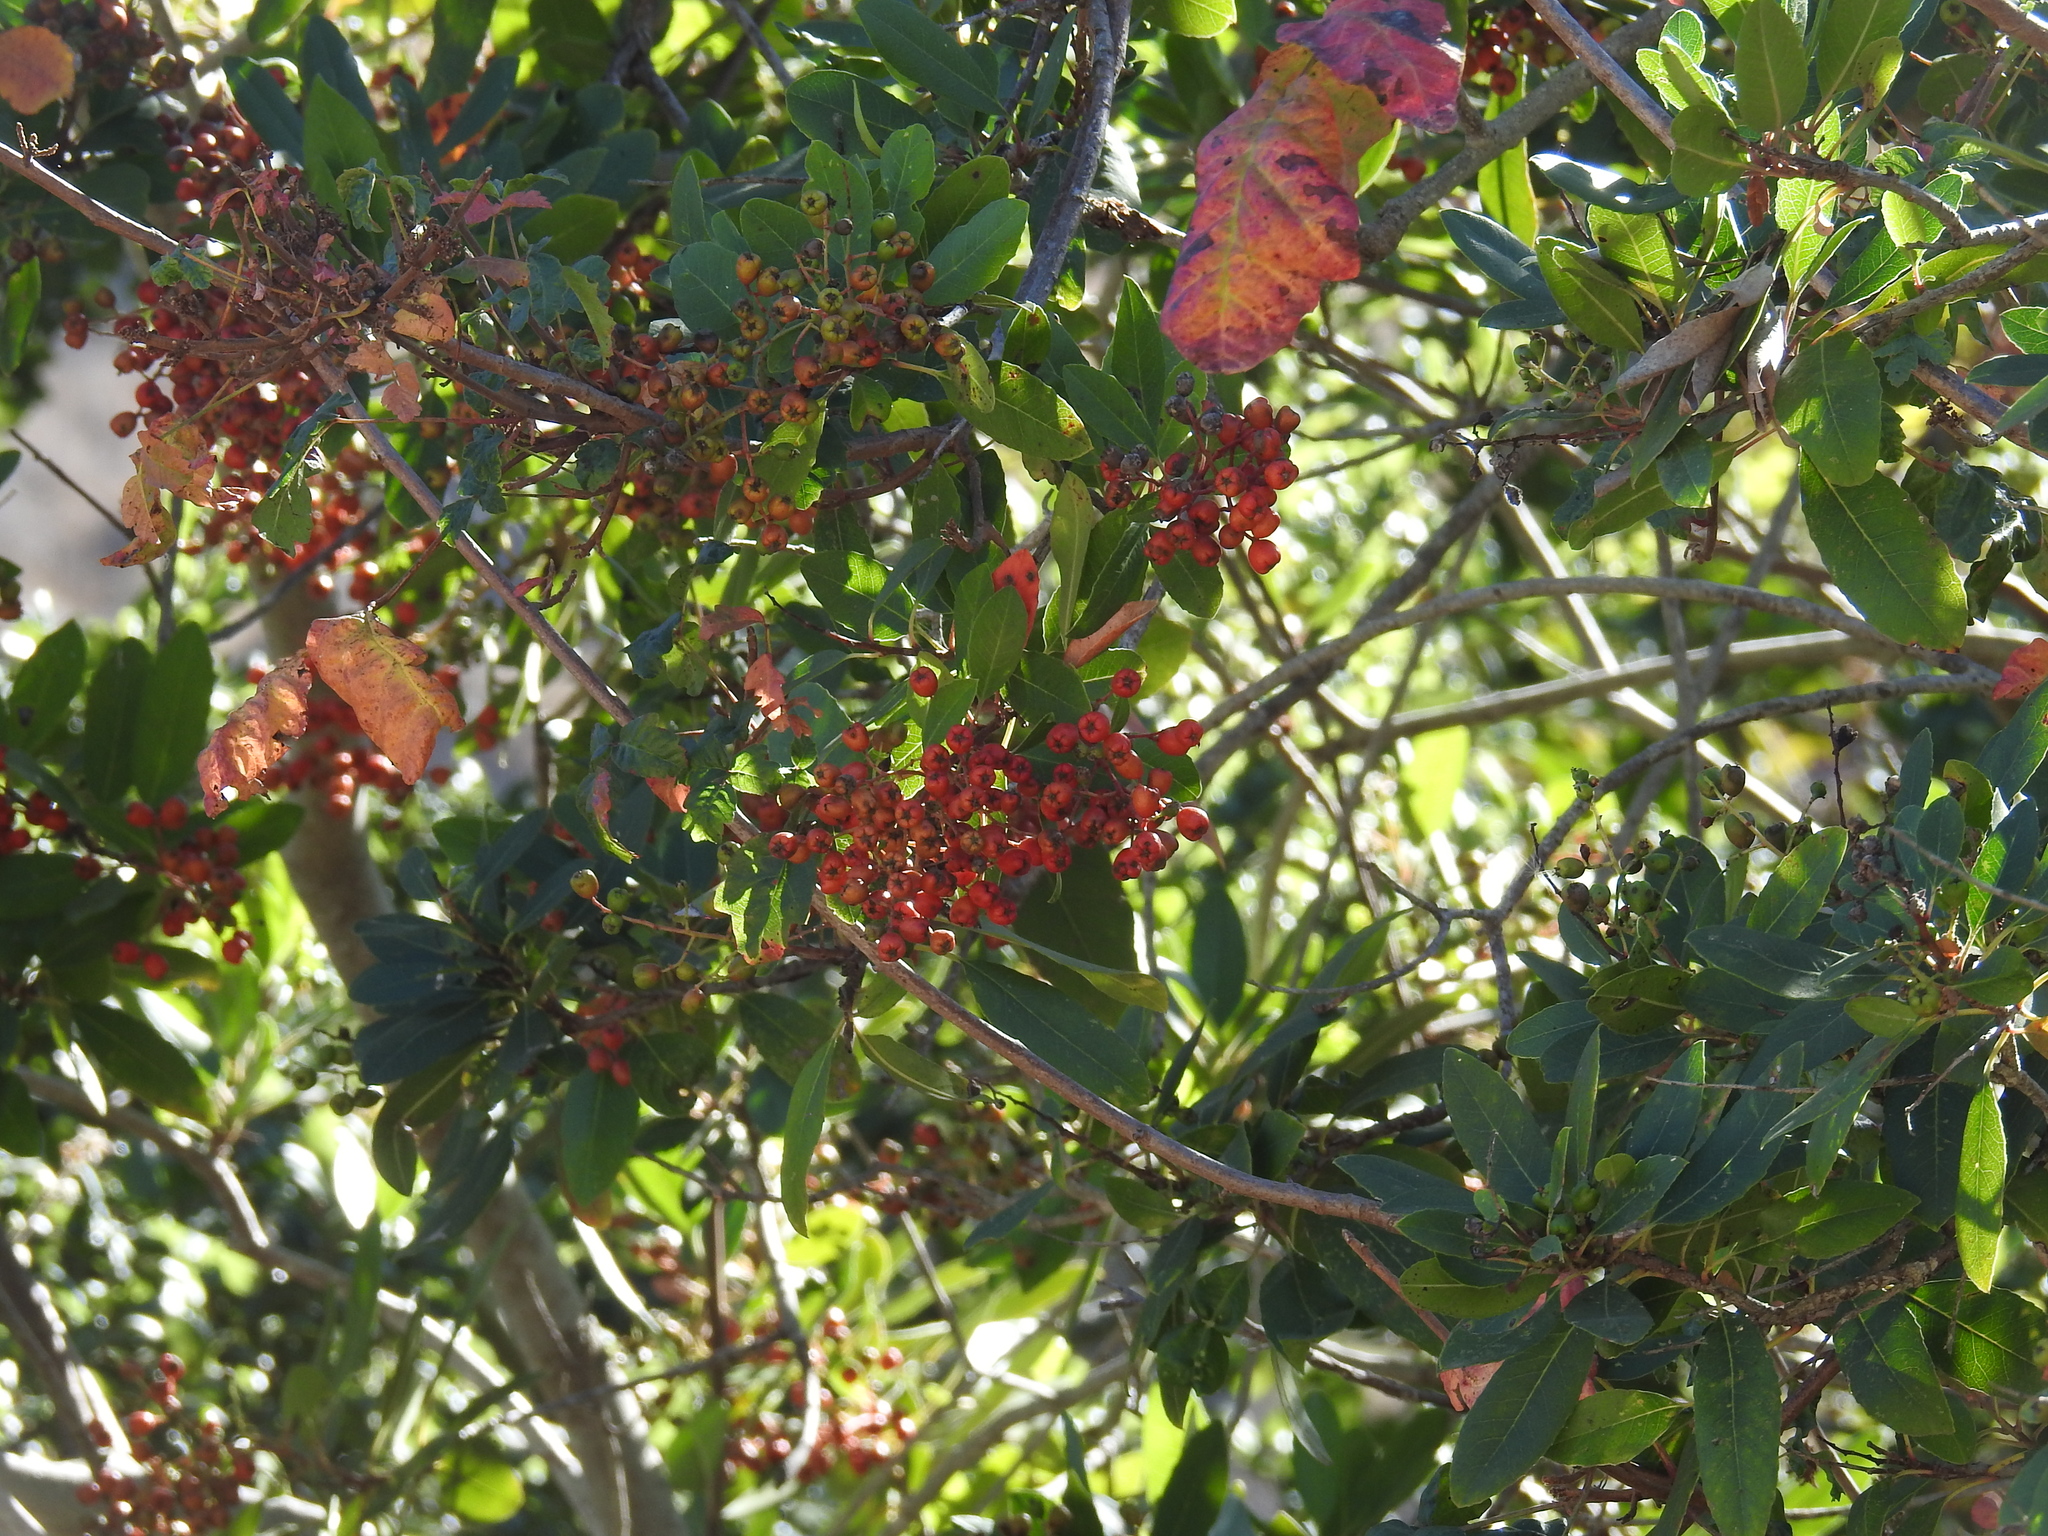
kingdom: Plantae
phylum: Tracheophyta
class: Magnoliopsida
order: Rosales
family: Rosaceae
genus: Heteromeles
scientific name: Heteromeles arbutifolia
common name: California-holly
